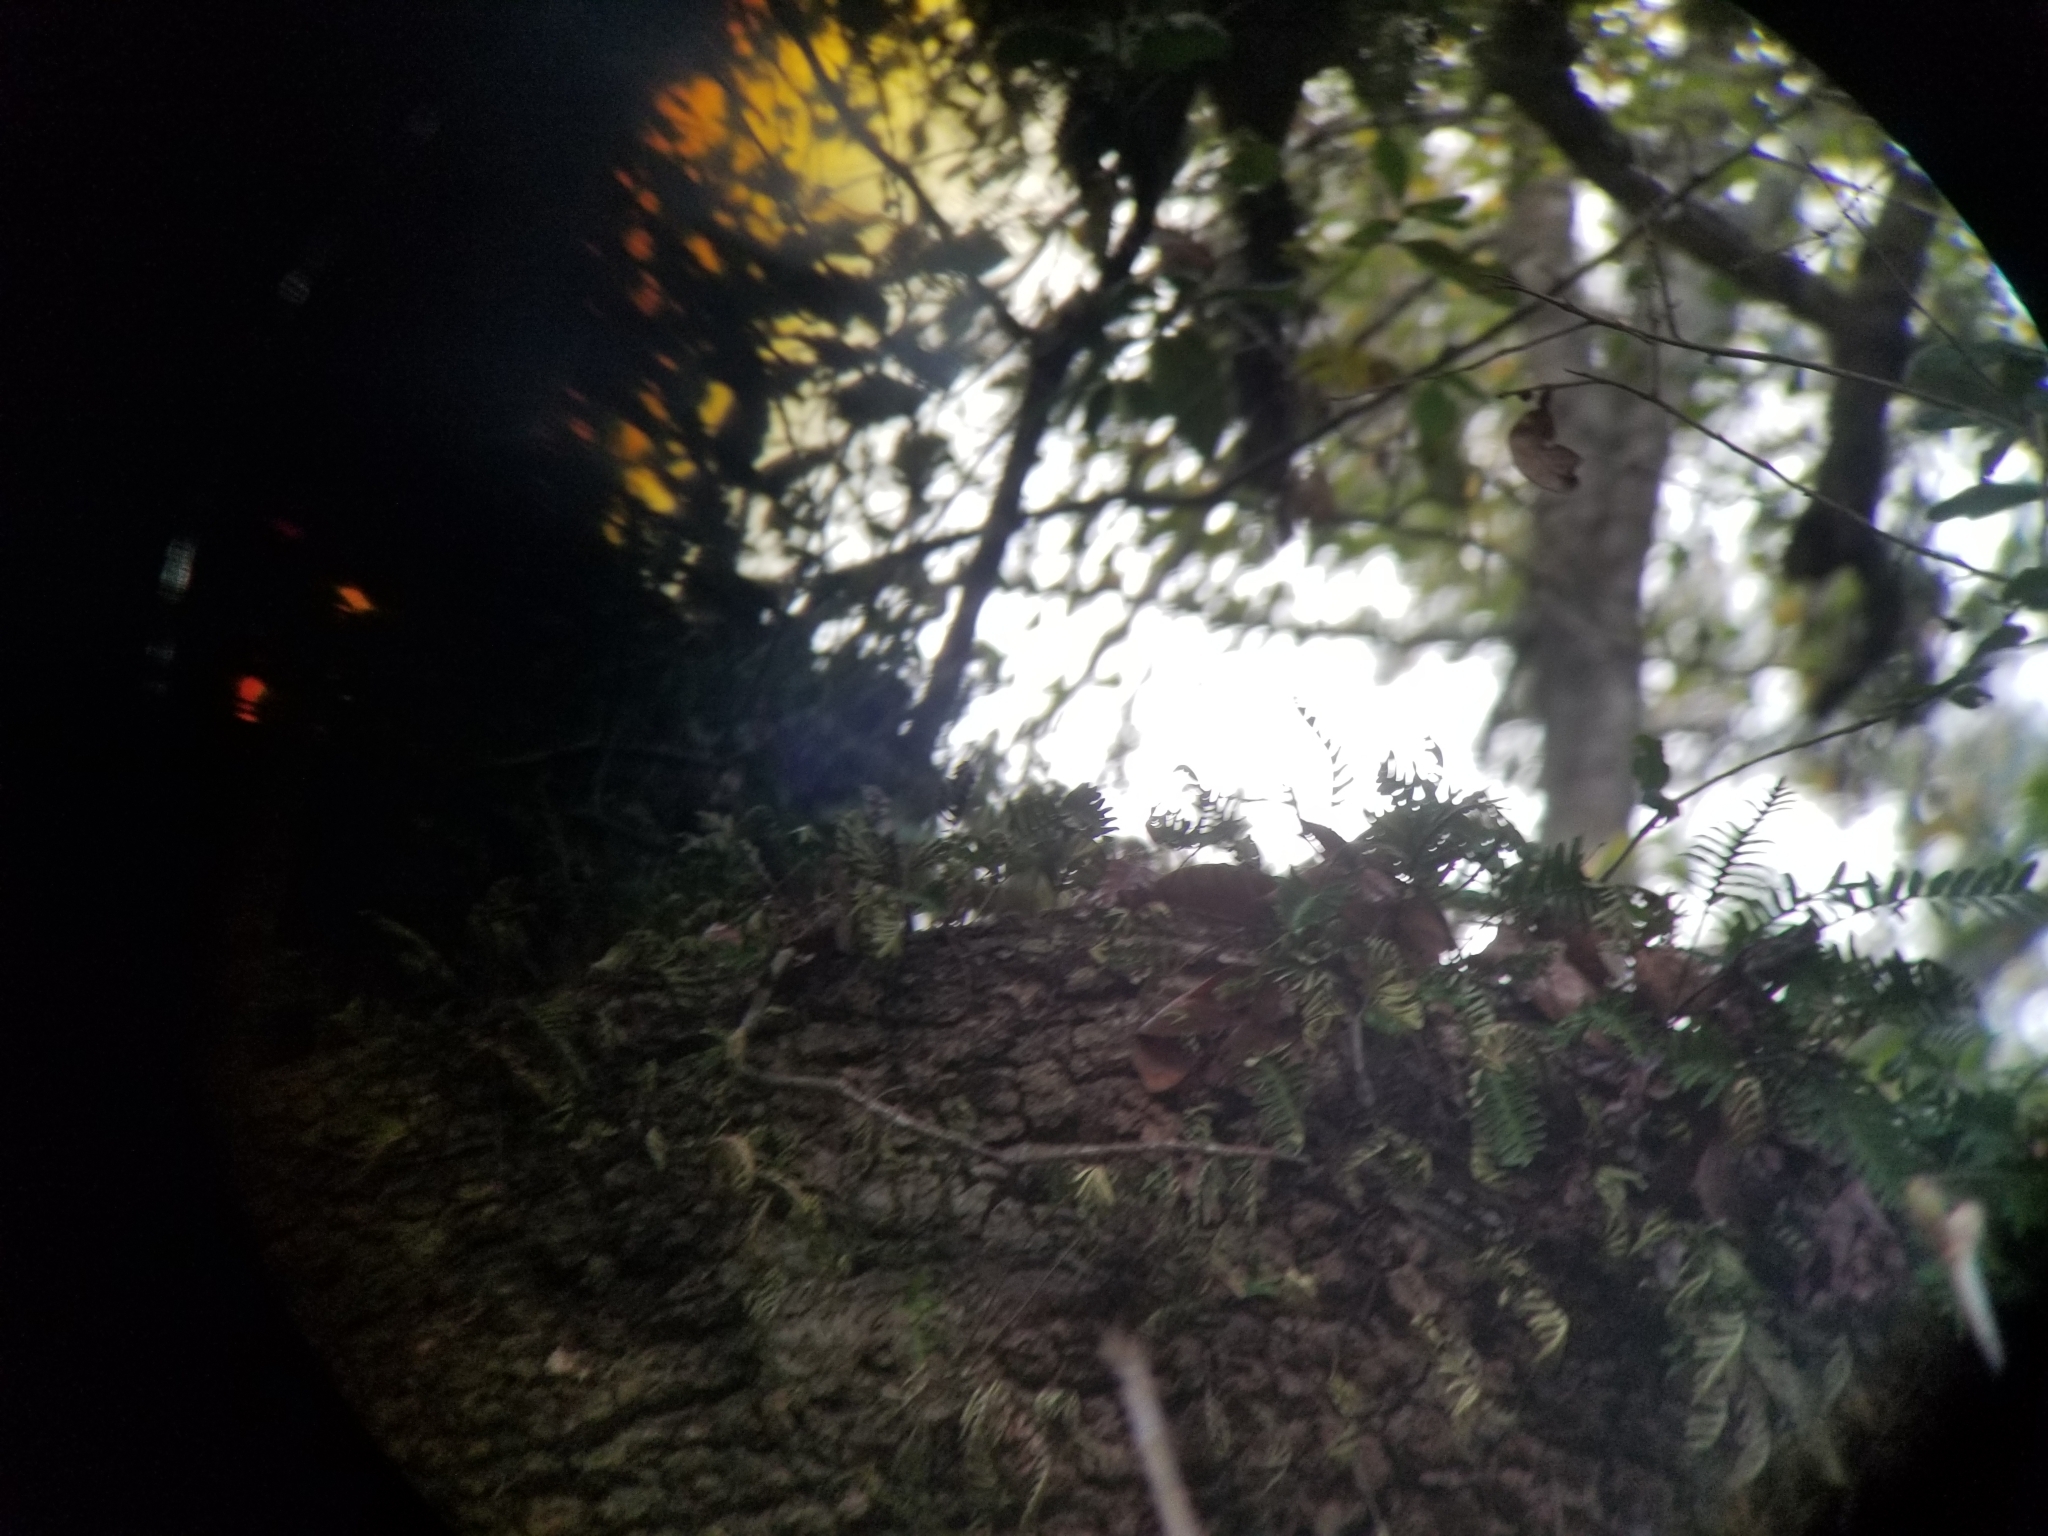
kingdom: Plantae
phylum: Tracheophyta
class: Polypodiopsida
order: Polypodiales
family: Polypodiaceae
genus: Pleopeltis
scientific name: Pleopeltis michauxiana
